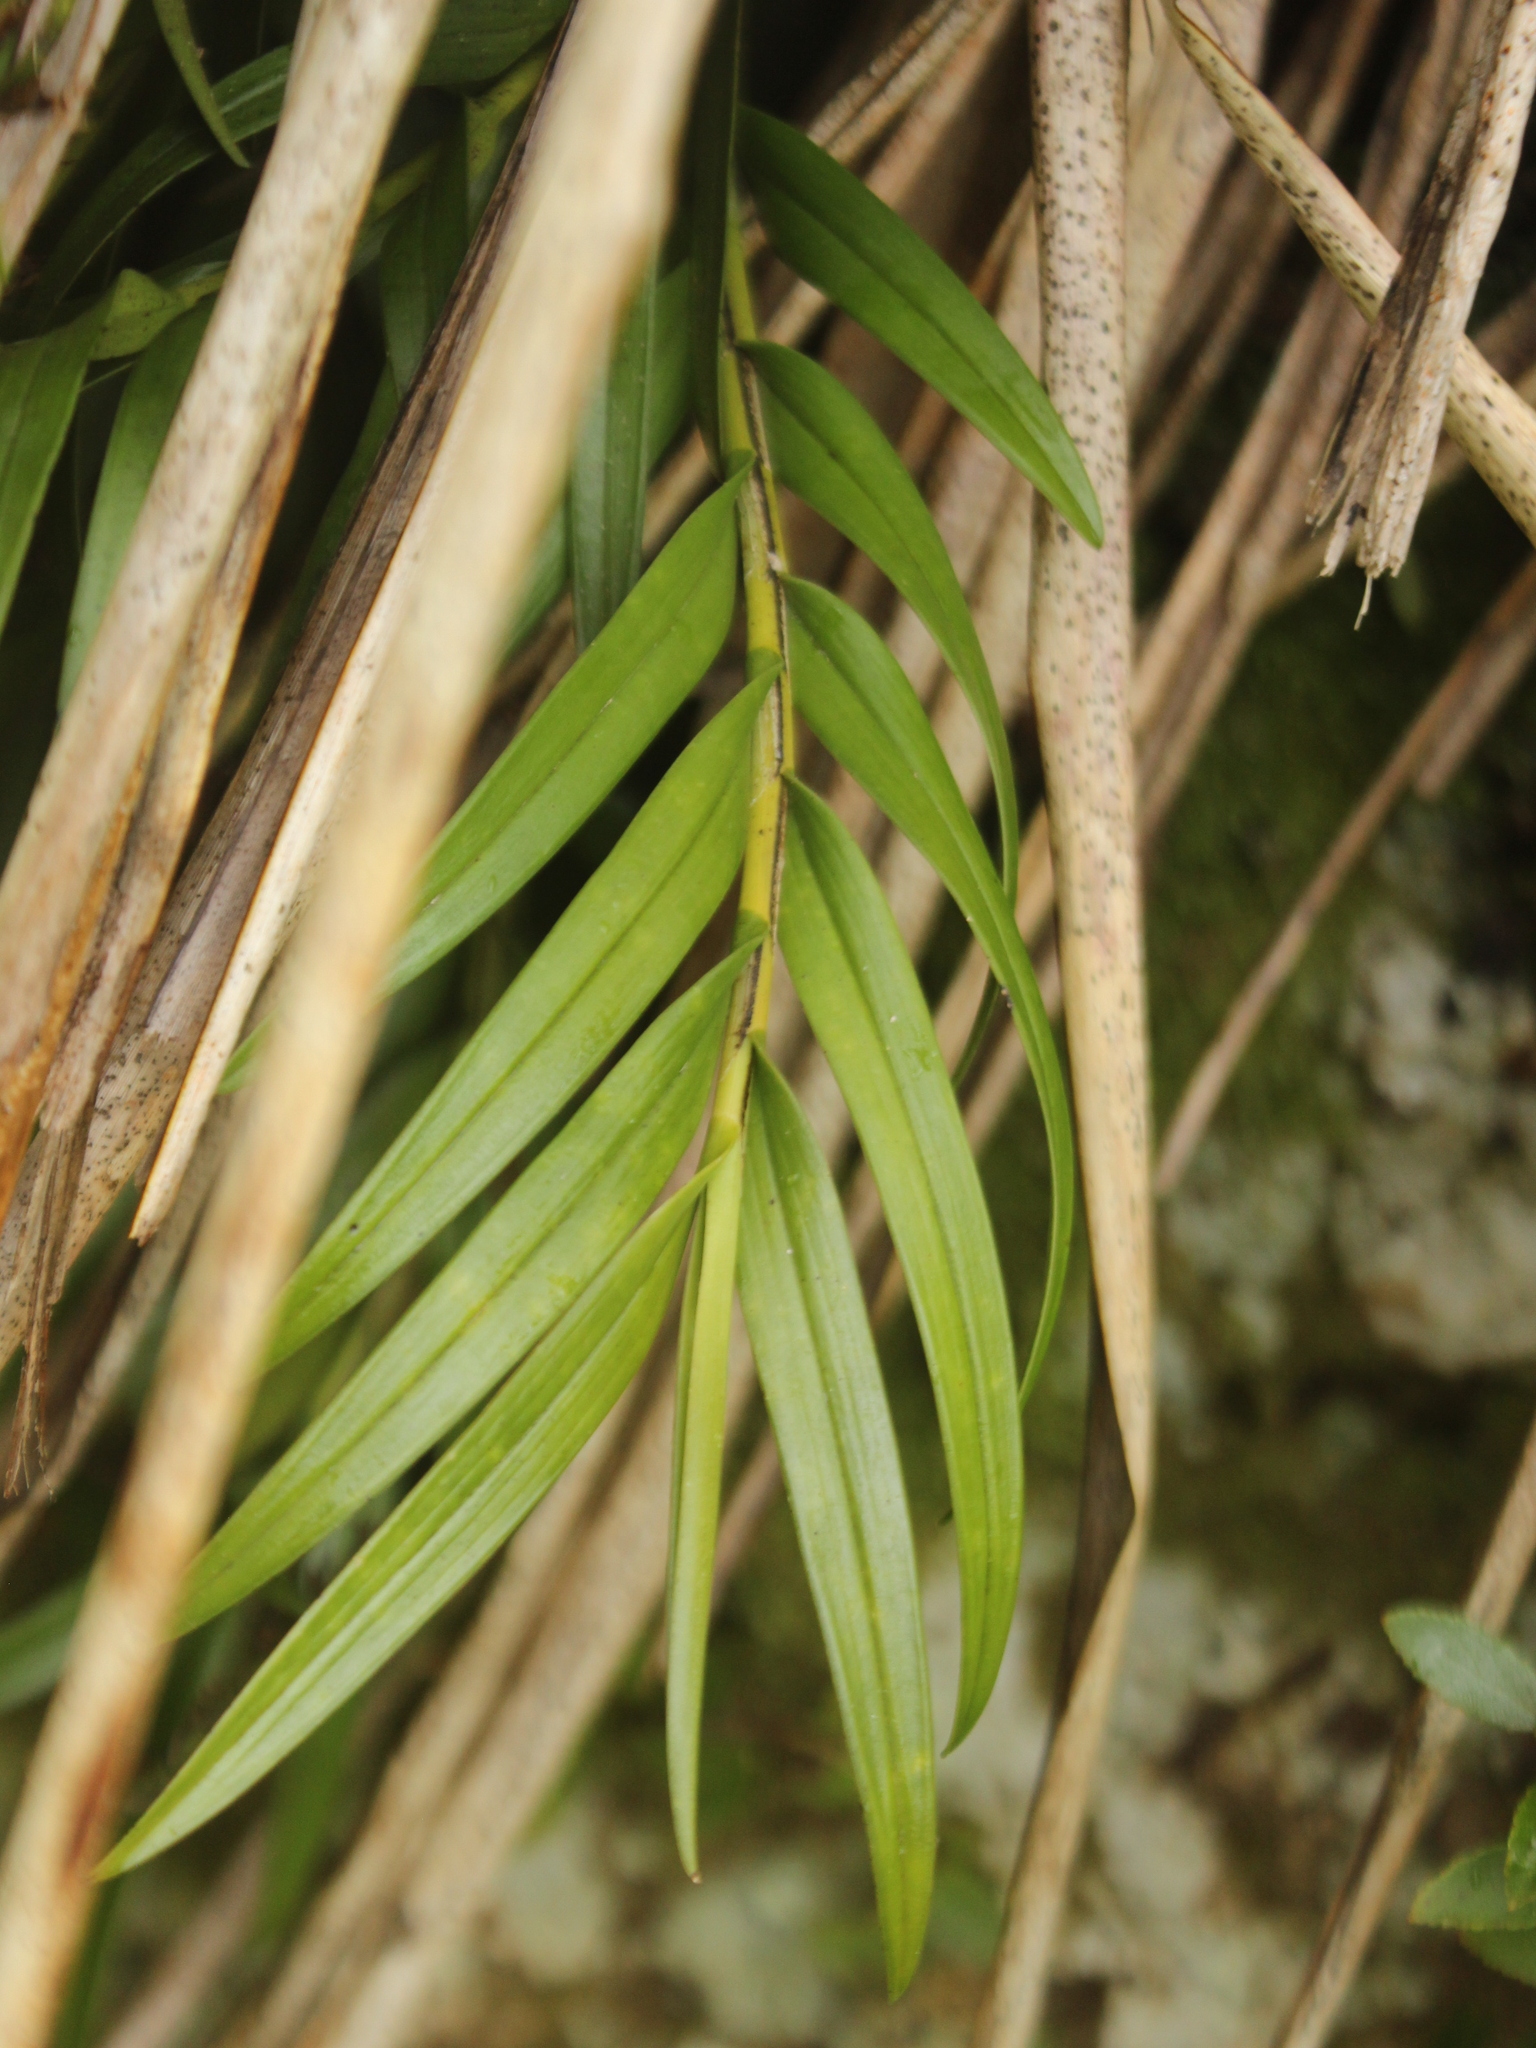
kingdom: Plantae
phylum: Tracheophyta
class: Liliopsida
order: Asparagales
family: Orchidaceae
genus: Earina
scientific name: Earina autumnalis
